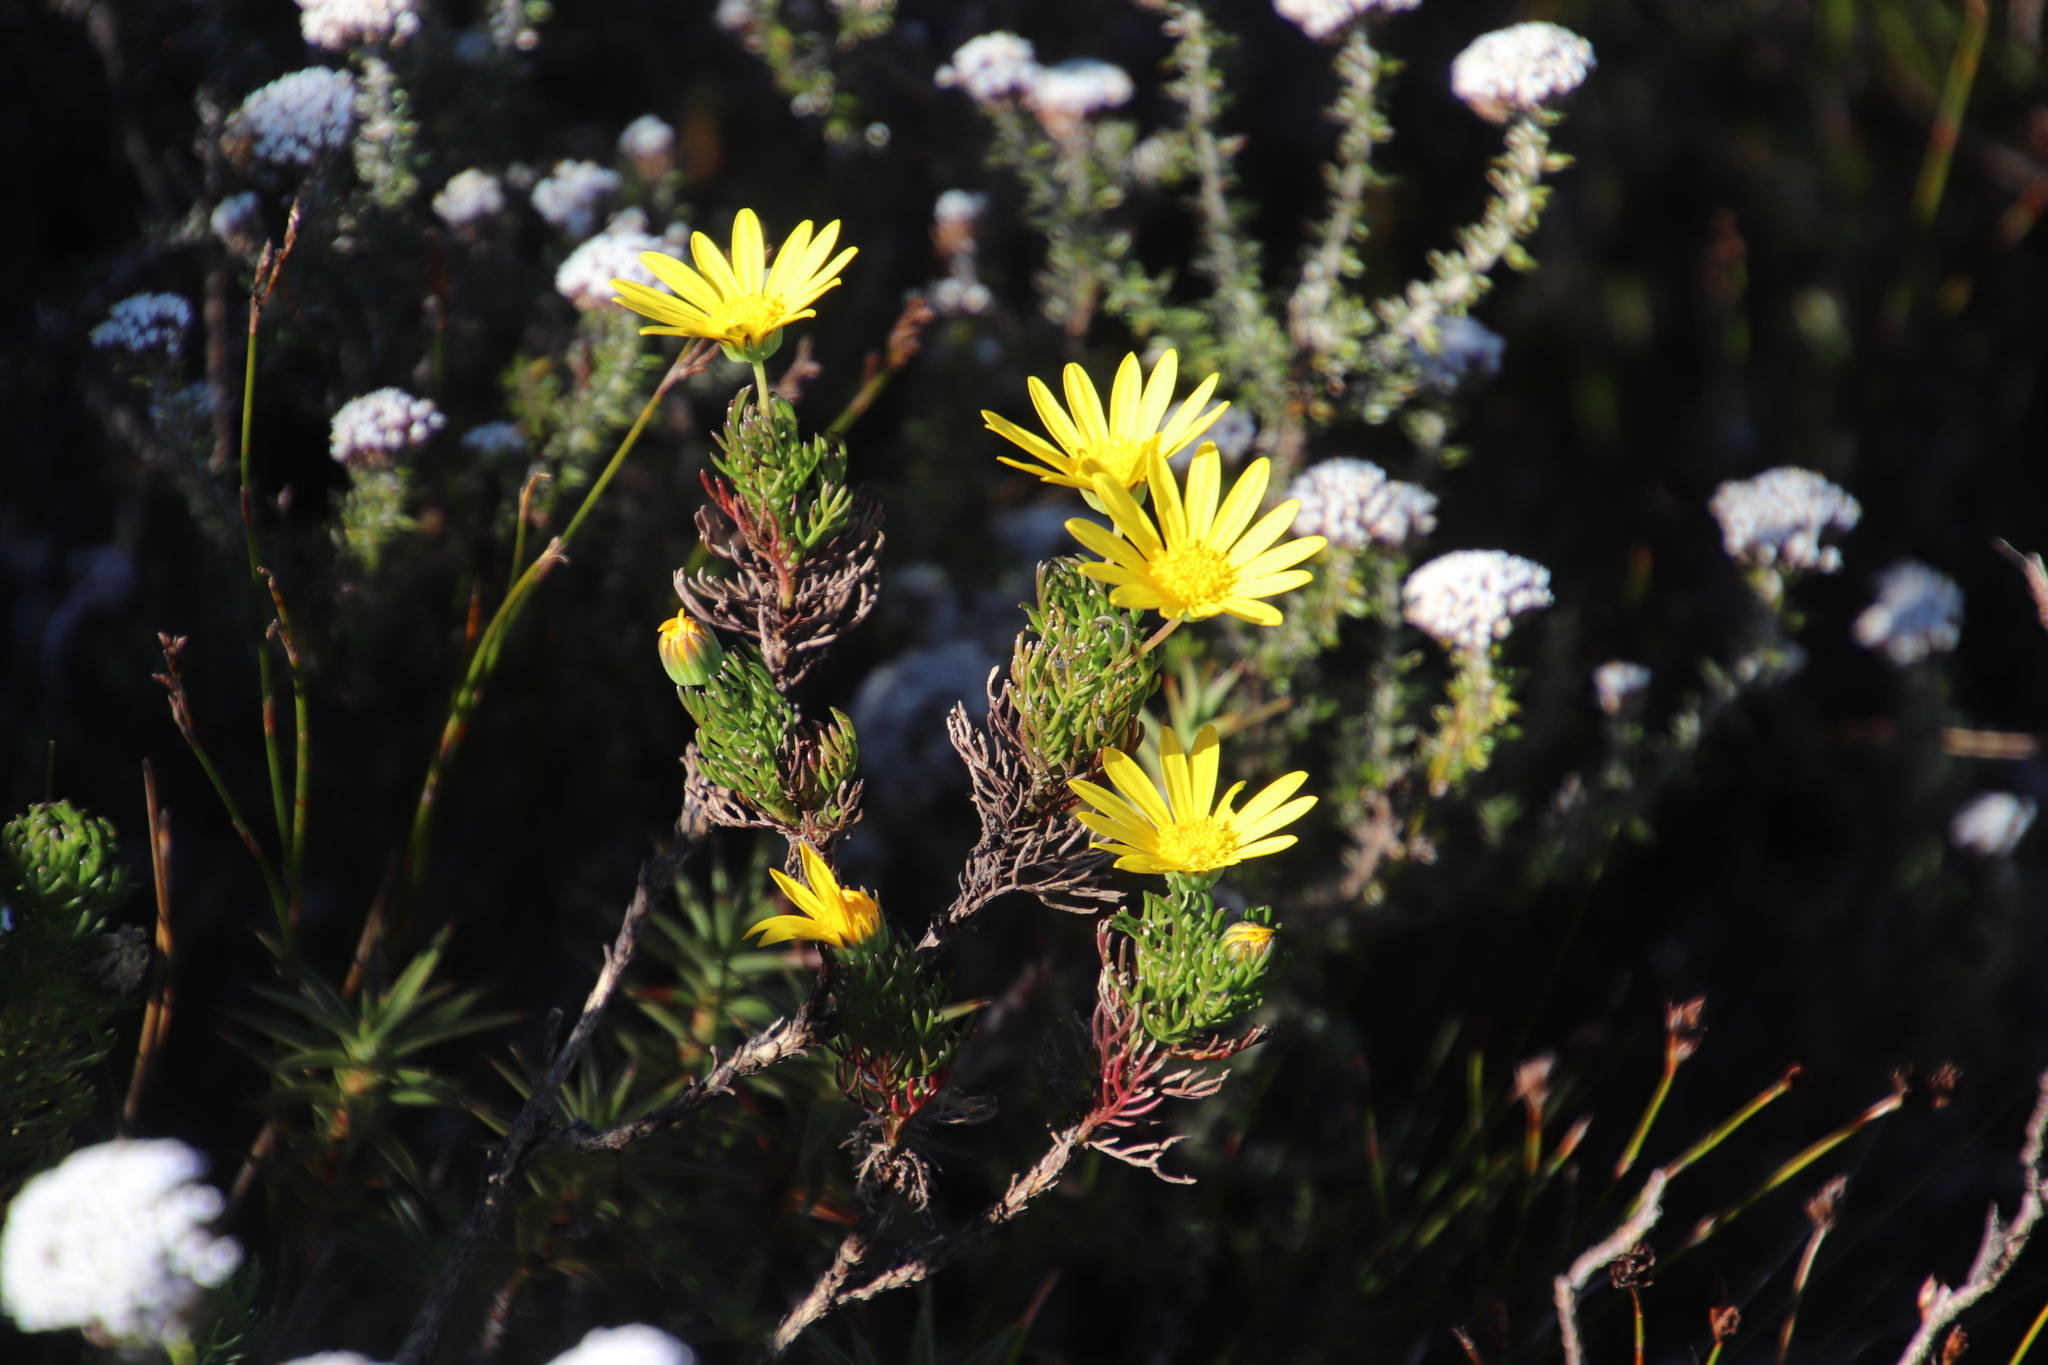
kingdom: Plantae
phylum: Tracheophyta
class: Magnoliopsida
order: Asterales
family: Asteraceae
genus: Euryops
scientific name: Euryops abrotanifolius
